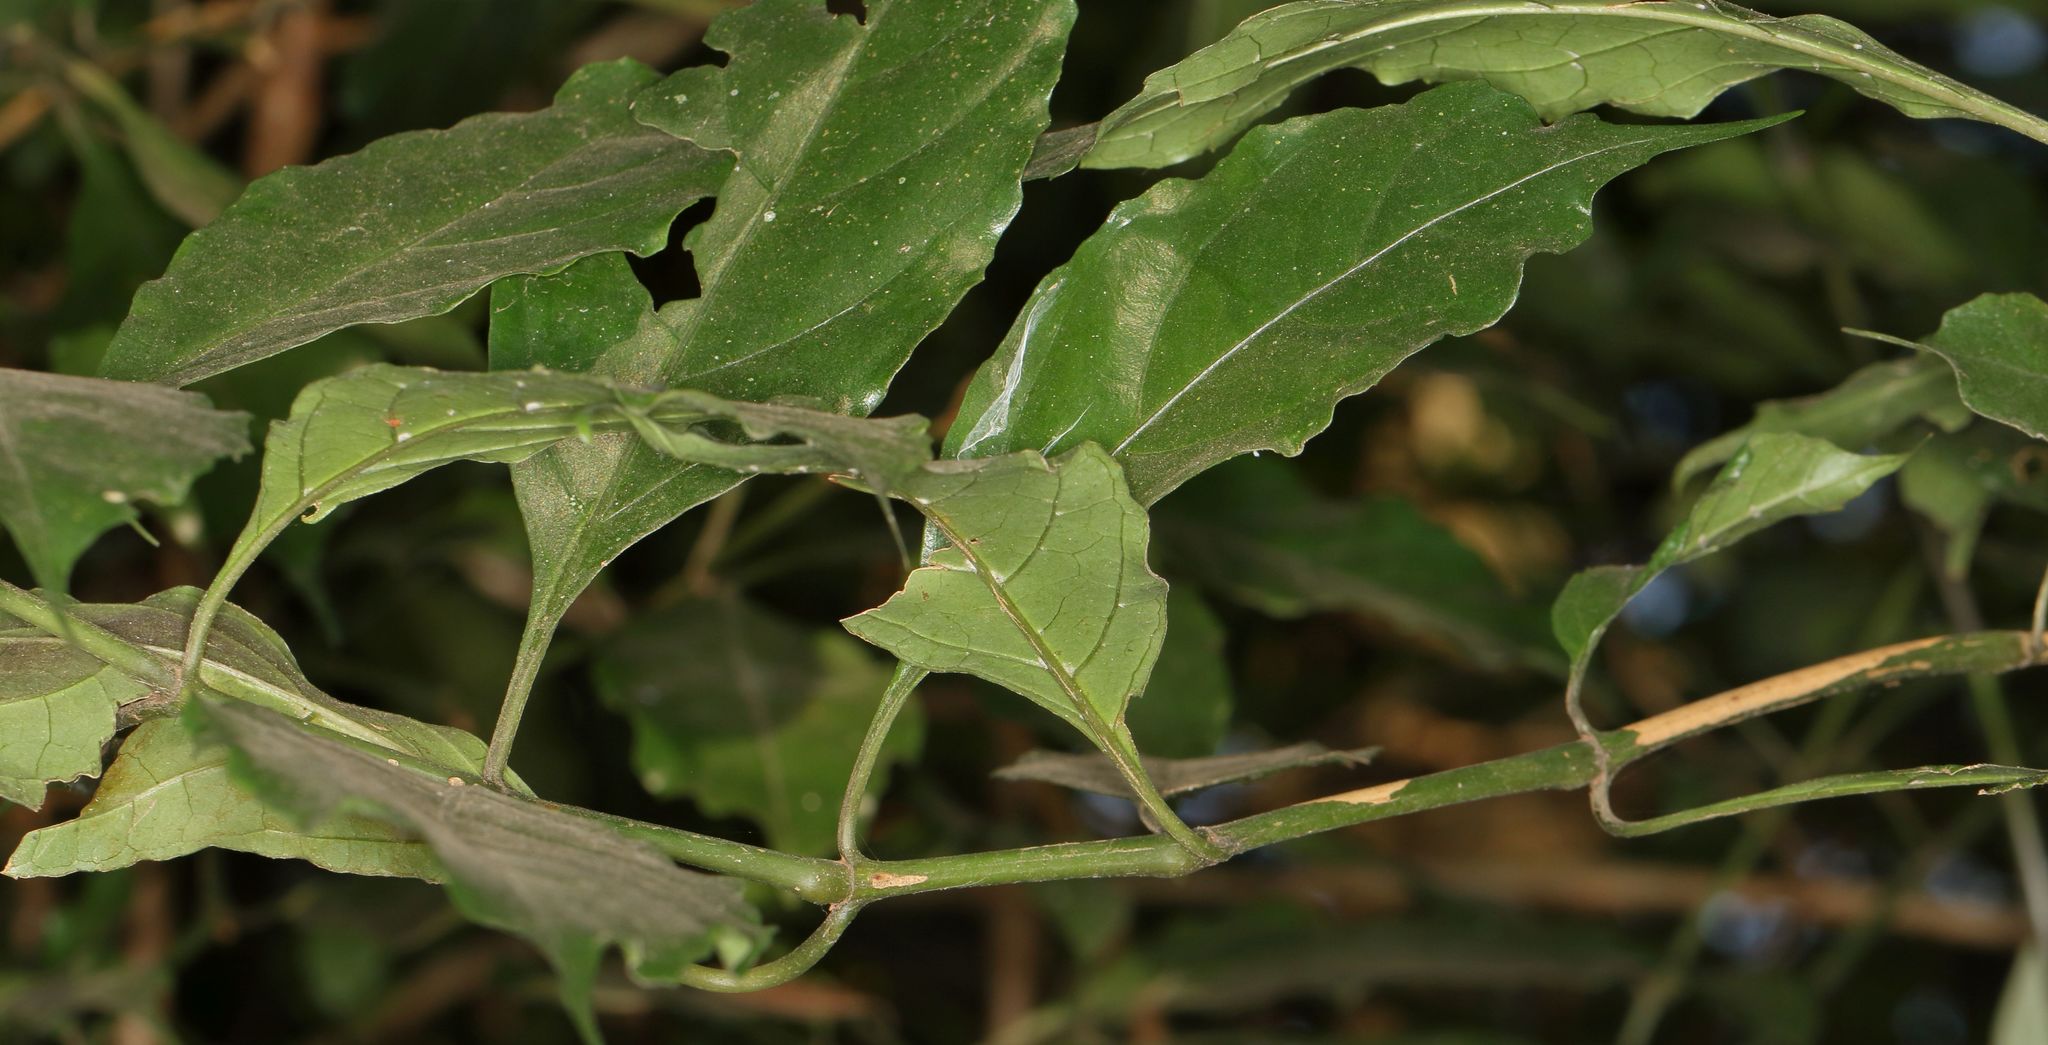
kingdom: Plantae
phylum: Tracheophyta
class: Magnoliopsida
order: Lamiales
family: Acanthaceae
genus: Mackaya
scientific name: Mackaya bella
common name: Forest bell-bush
